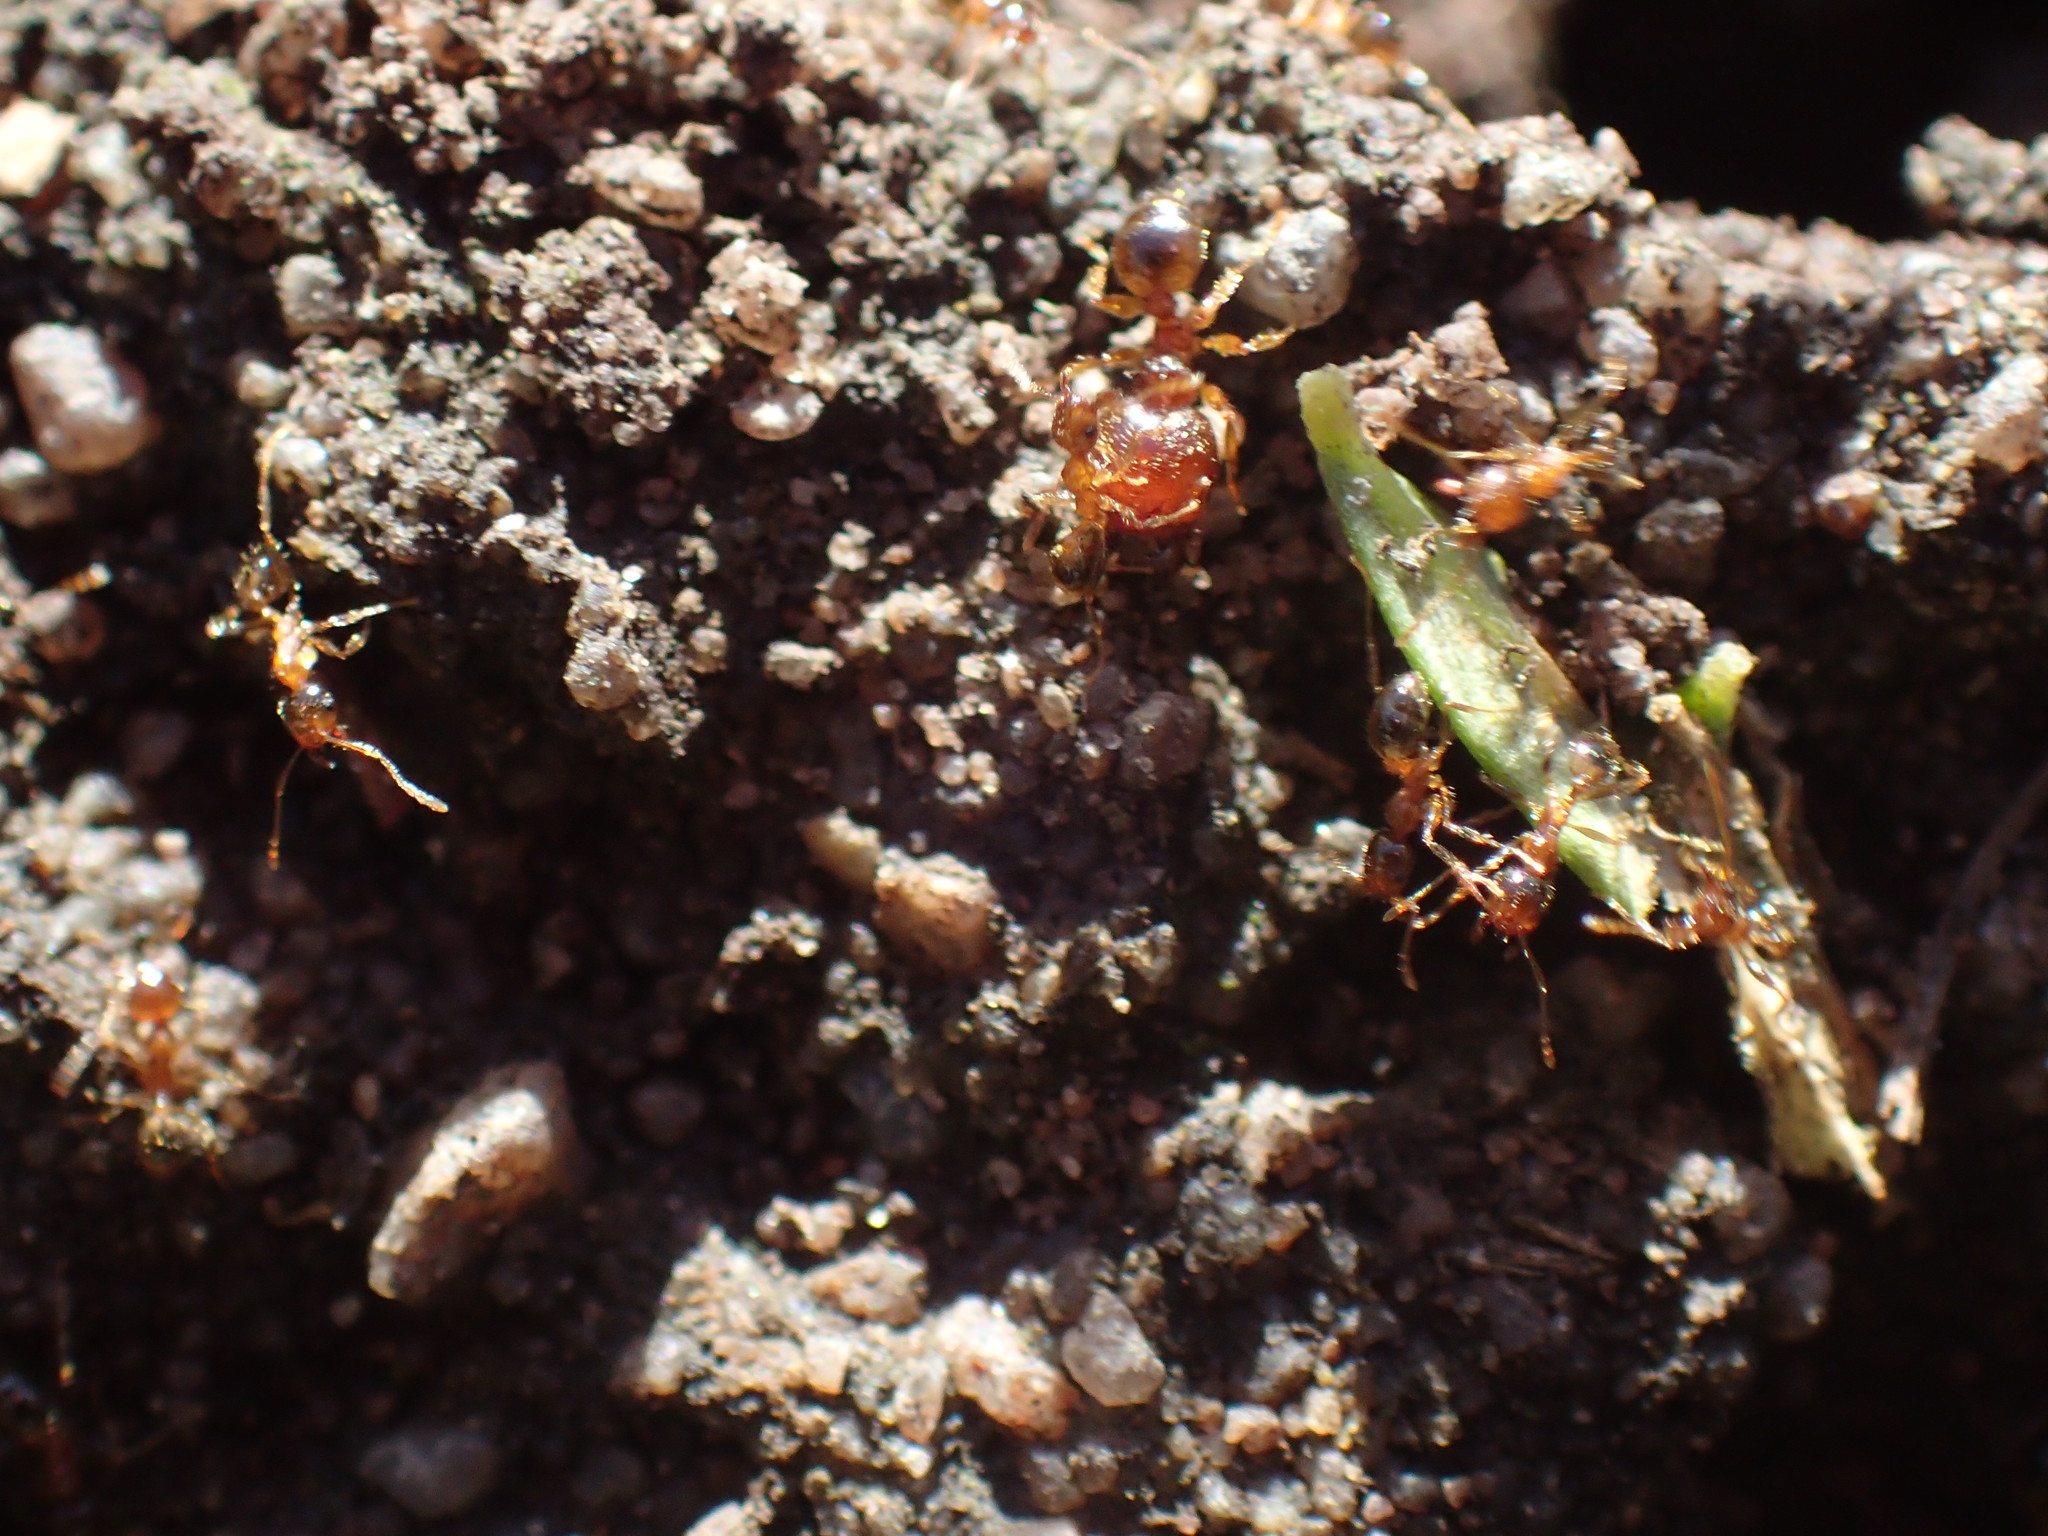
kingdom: Animalia
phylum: Arthropoda
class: Insecta
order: Hymenoptera
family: Formicidae
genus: Pheidole
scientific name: Pheidole megacephala
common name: Bigheaded ant
